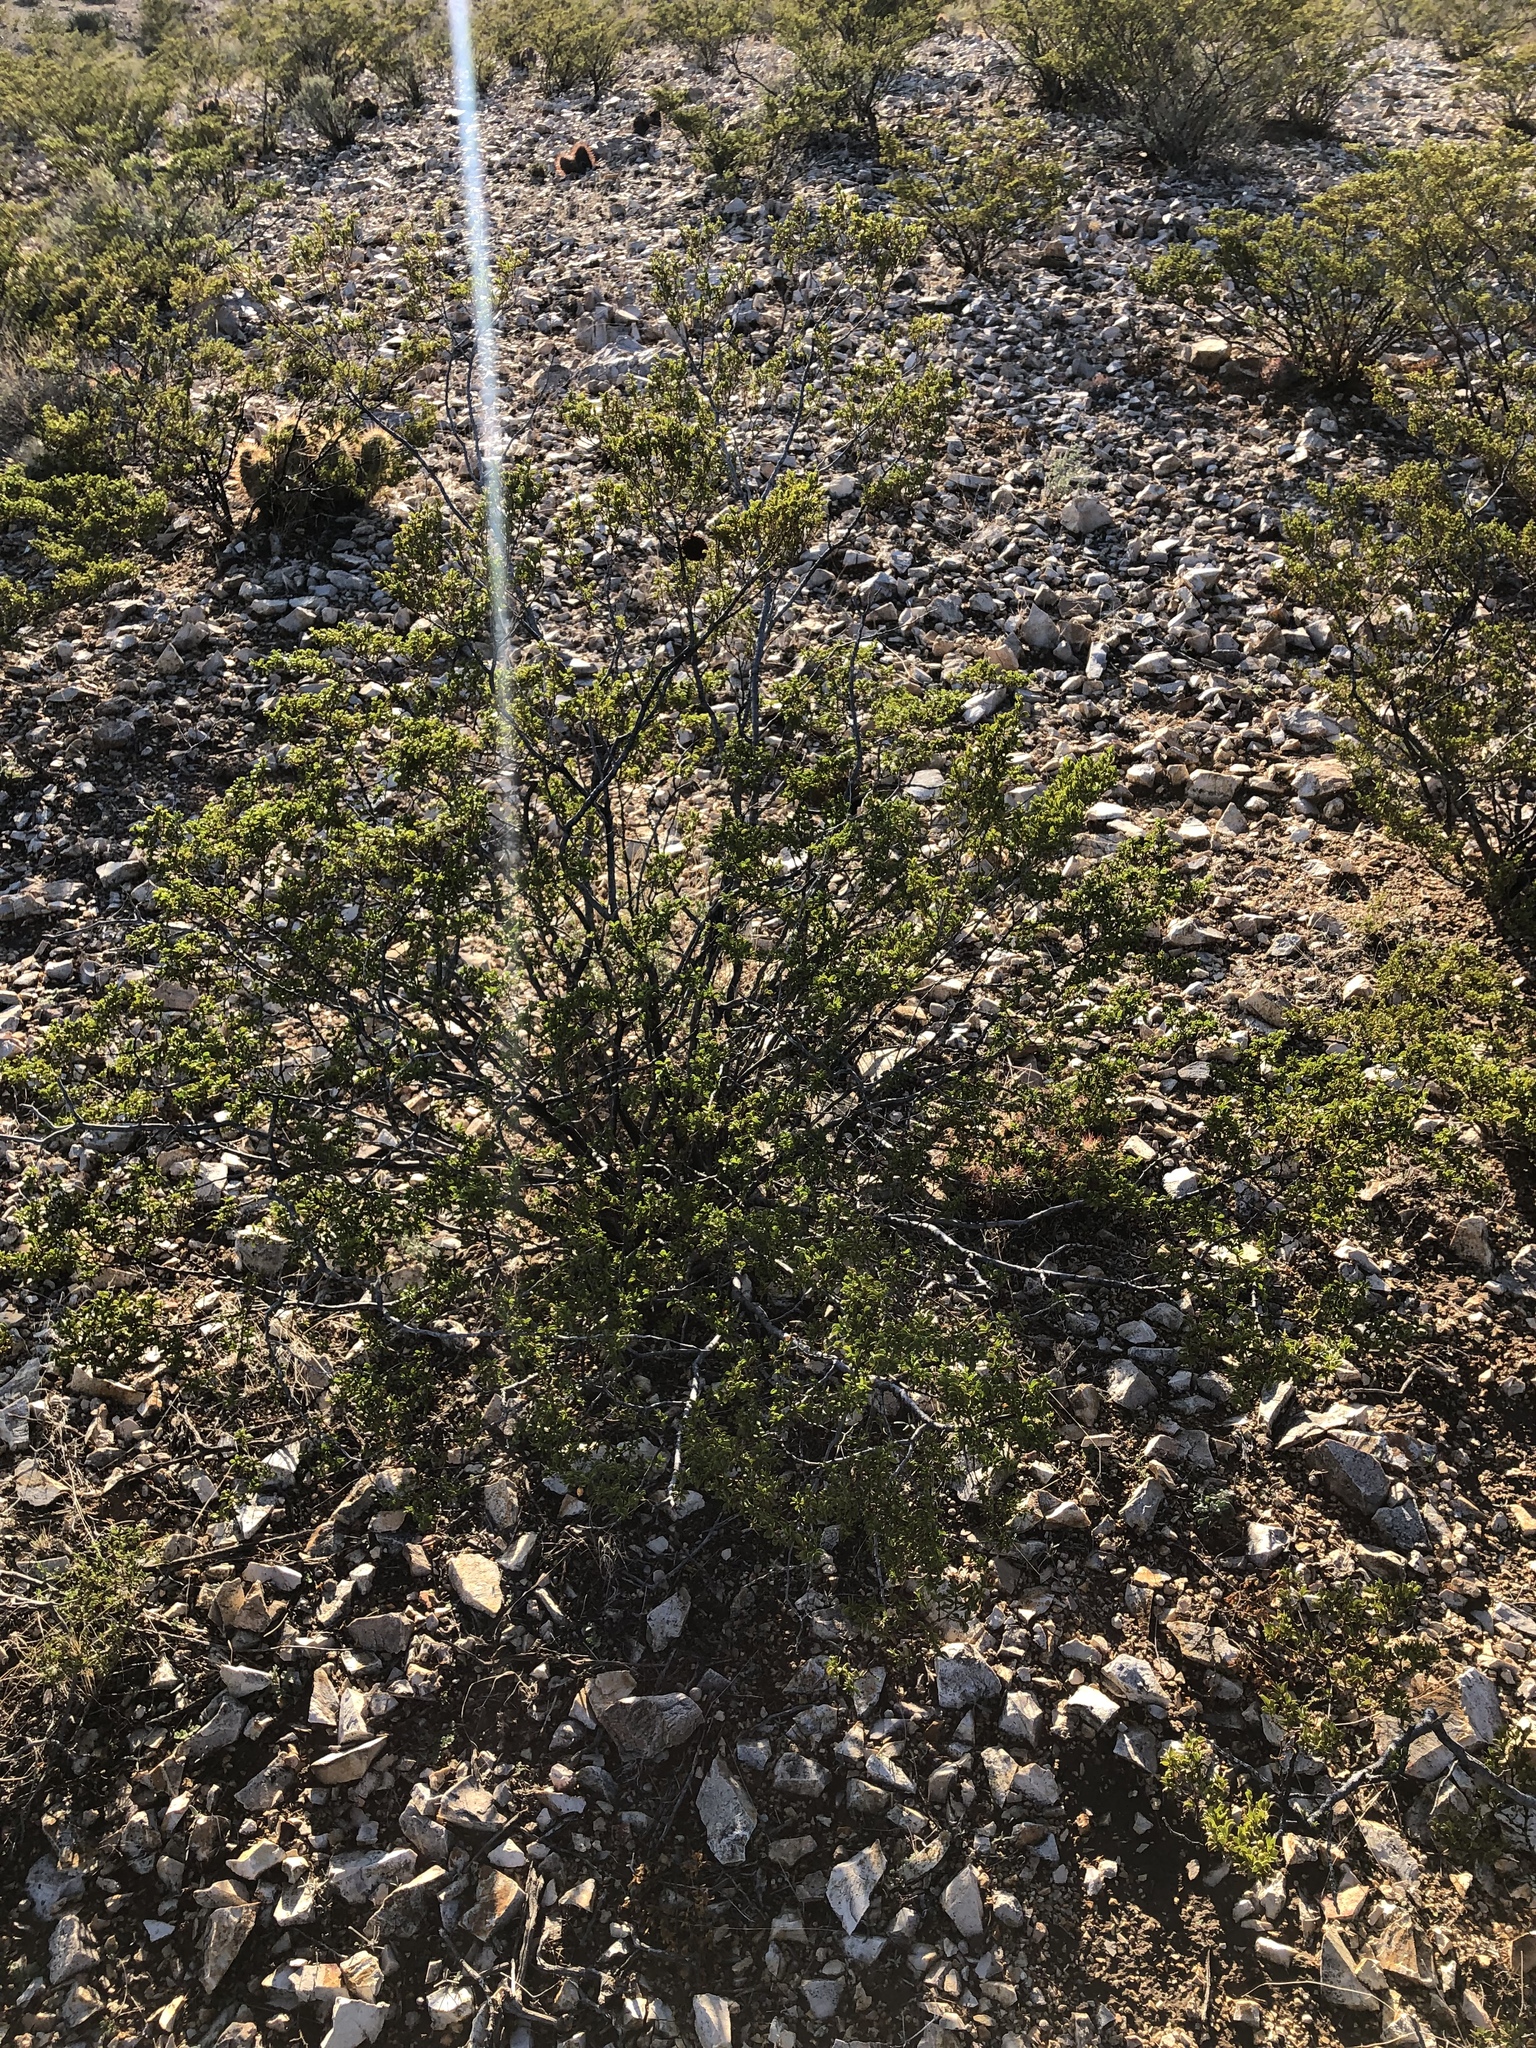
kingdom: Plantae
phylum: Tracheophyta
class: Magnoliopsida
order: Zygophyllales
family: Zygophyllaceae
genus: Larrea
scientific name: Larrea tridentata
